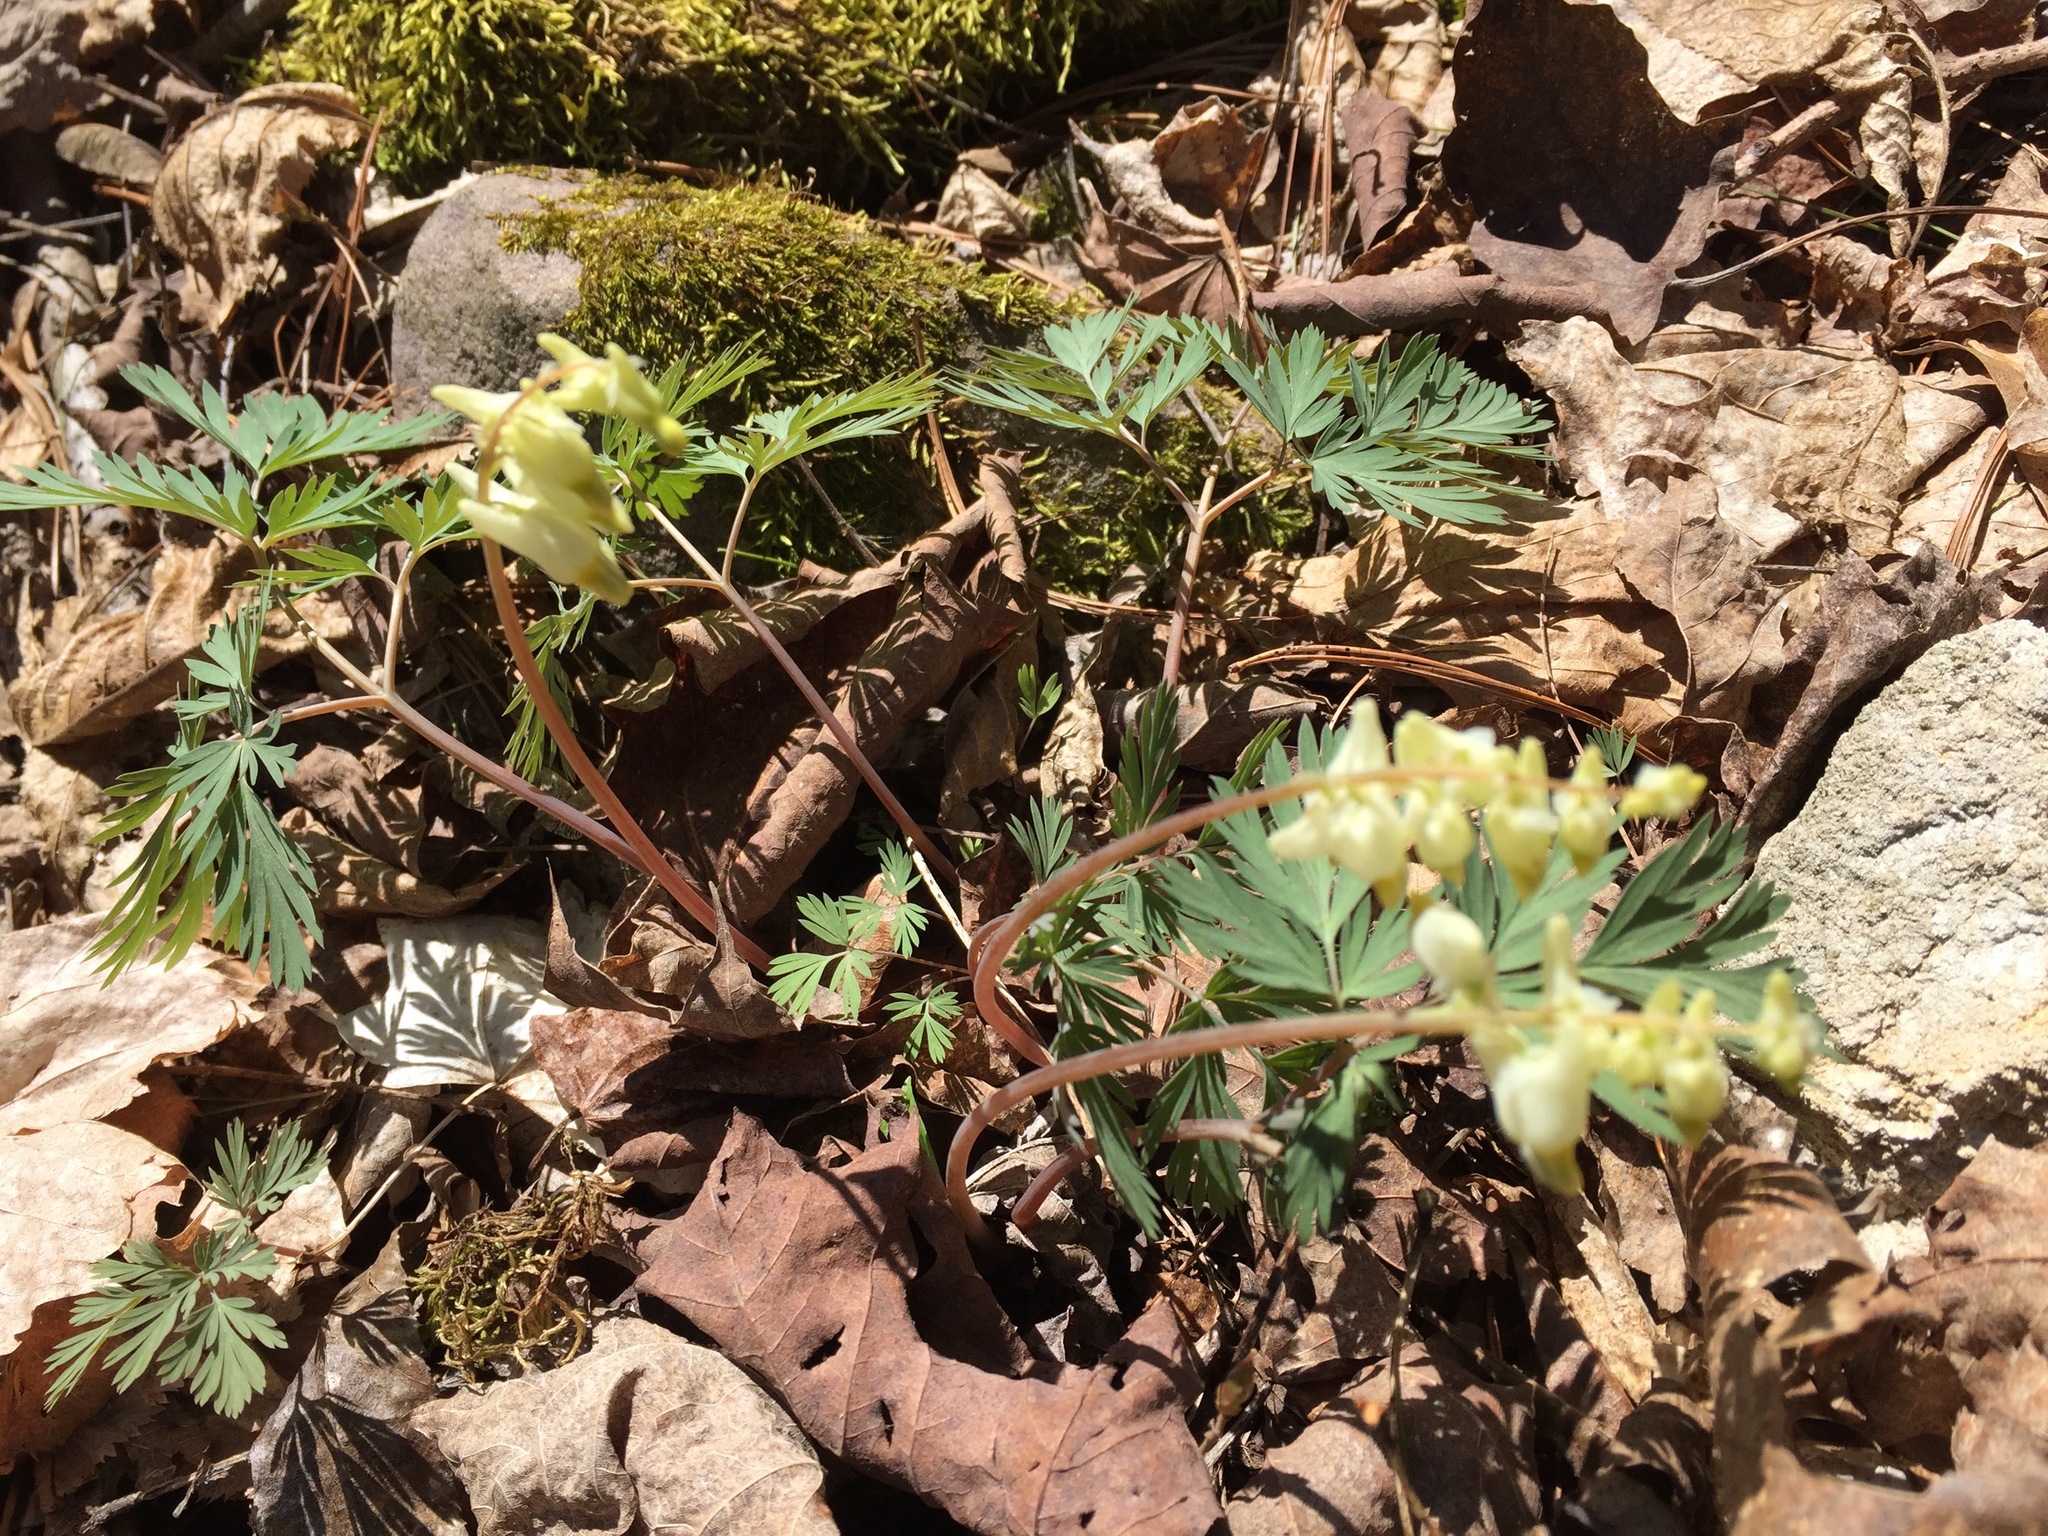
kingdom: Plantae
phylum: Tracheophyta
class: Magnoliopsida
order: Ranunculales
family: Papaveraceae
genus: Dicentra
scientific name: Dicentra cucullaria
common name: Dutchman's breeches
